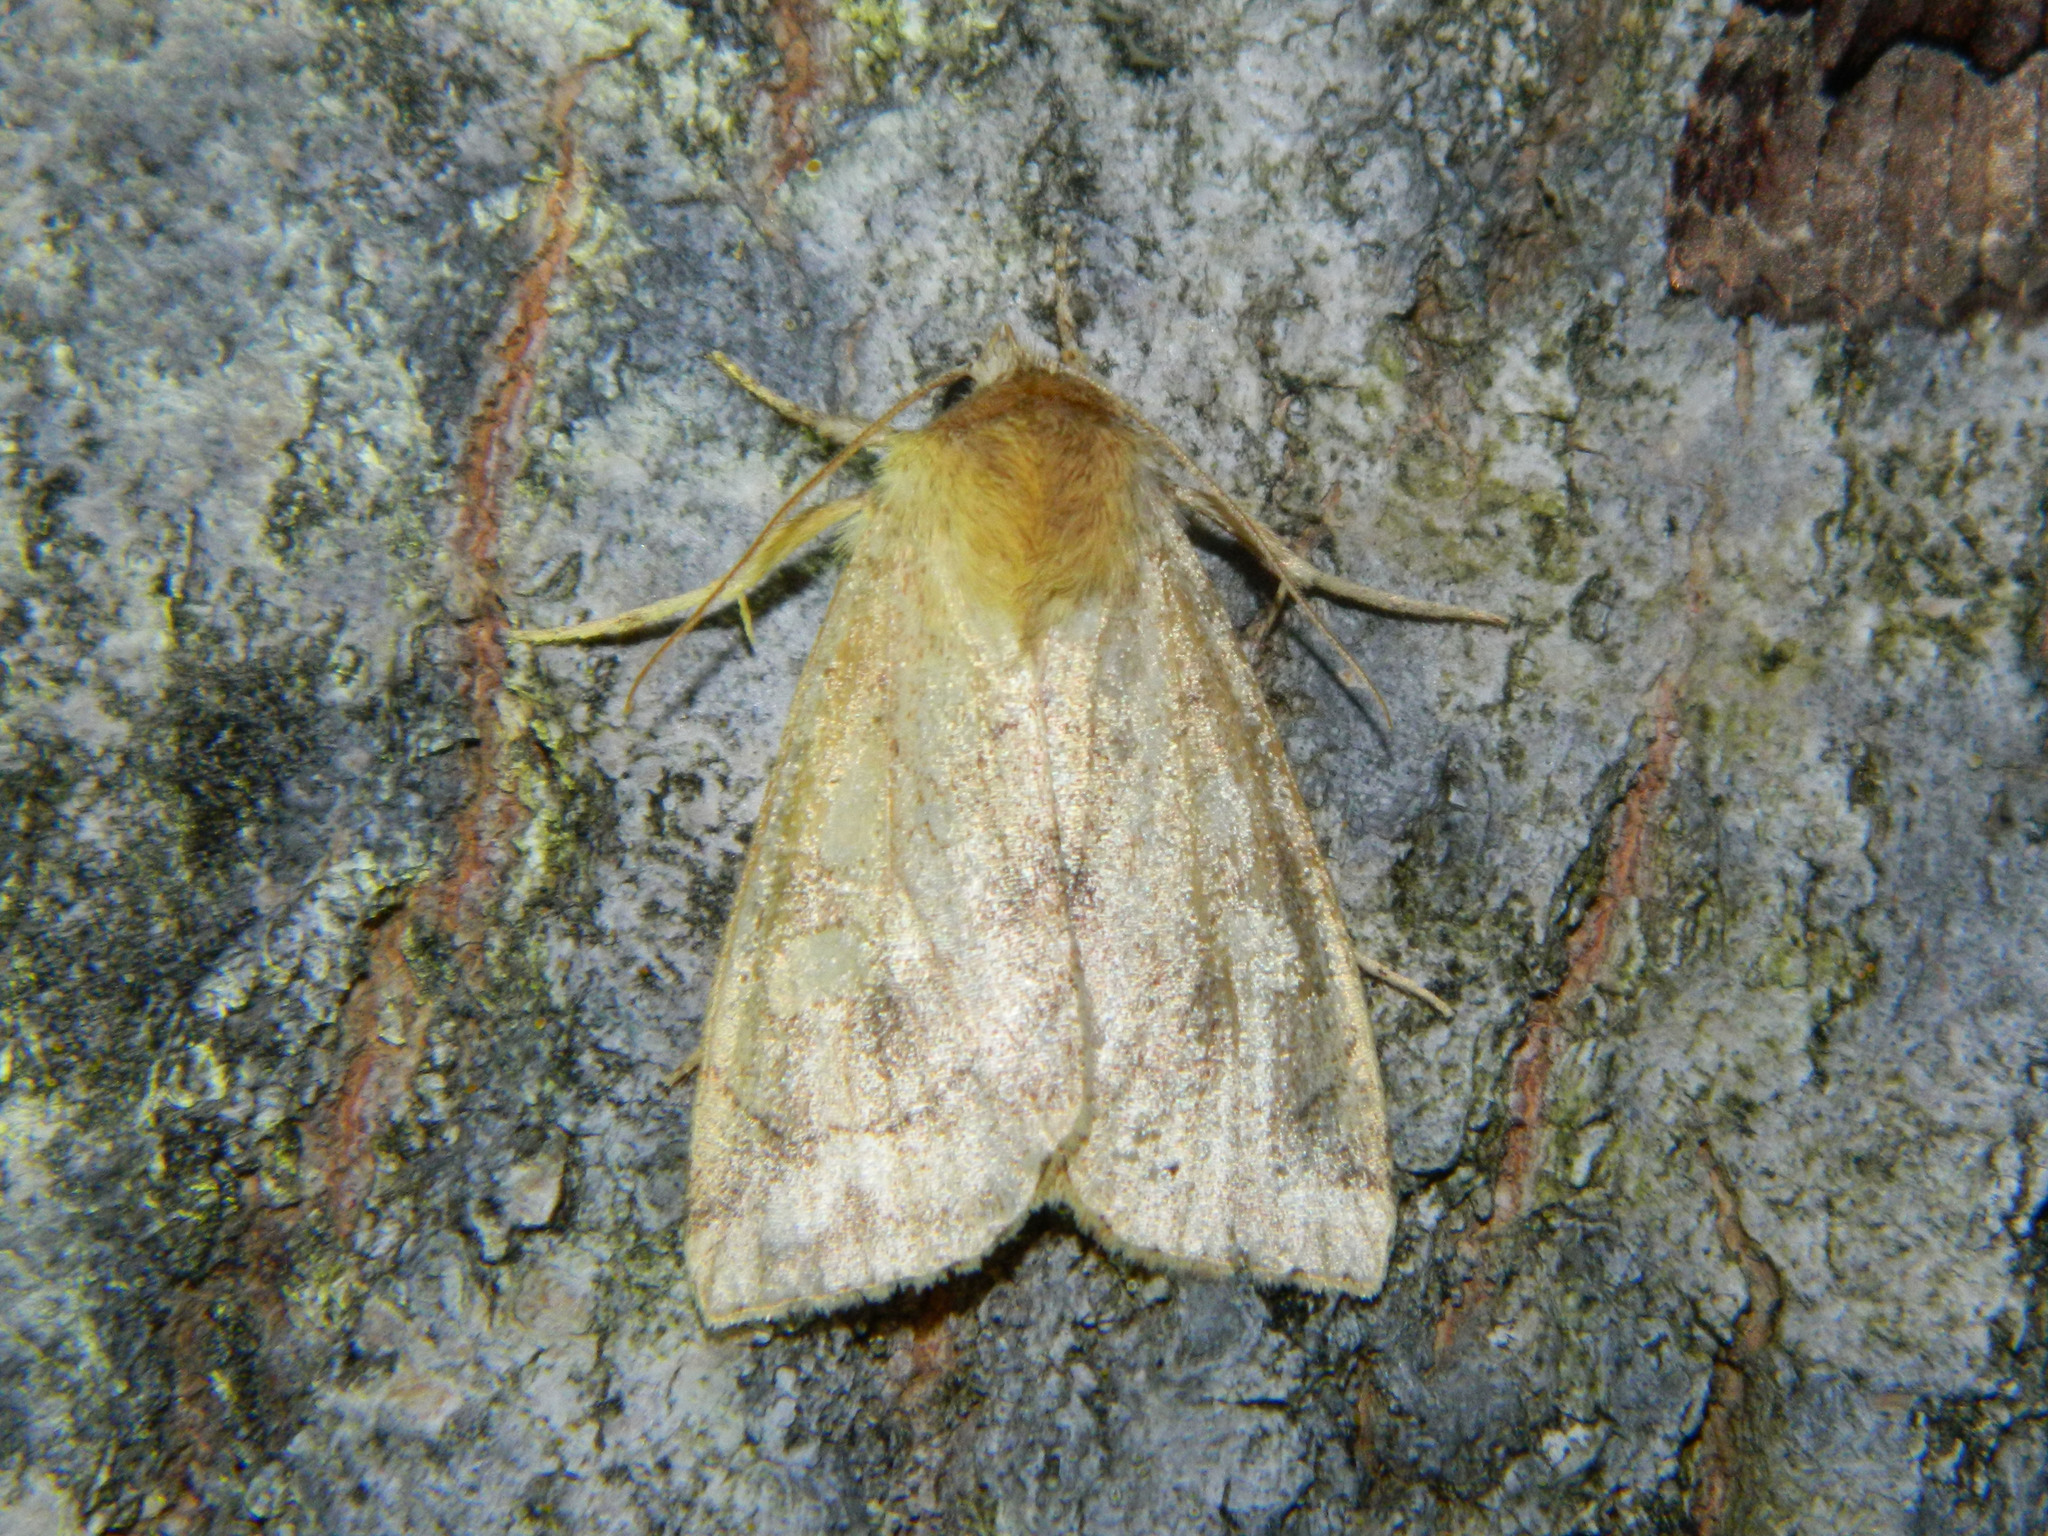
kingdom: Animalia
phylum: Arthropoda
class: Insecta
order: Lepidoptera
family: Noctuidae
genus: Enargia
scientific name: Enargia decolor
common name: Aspen twoleaf tier moth
